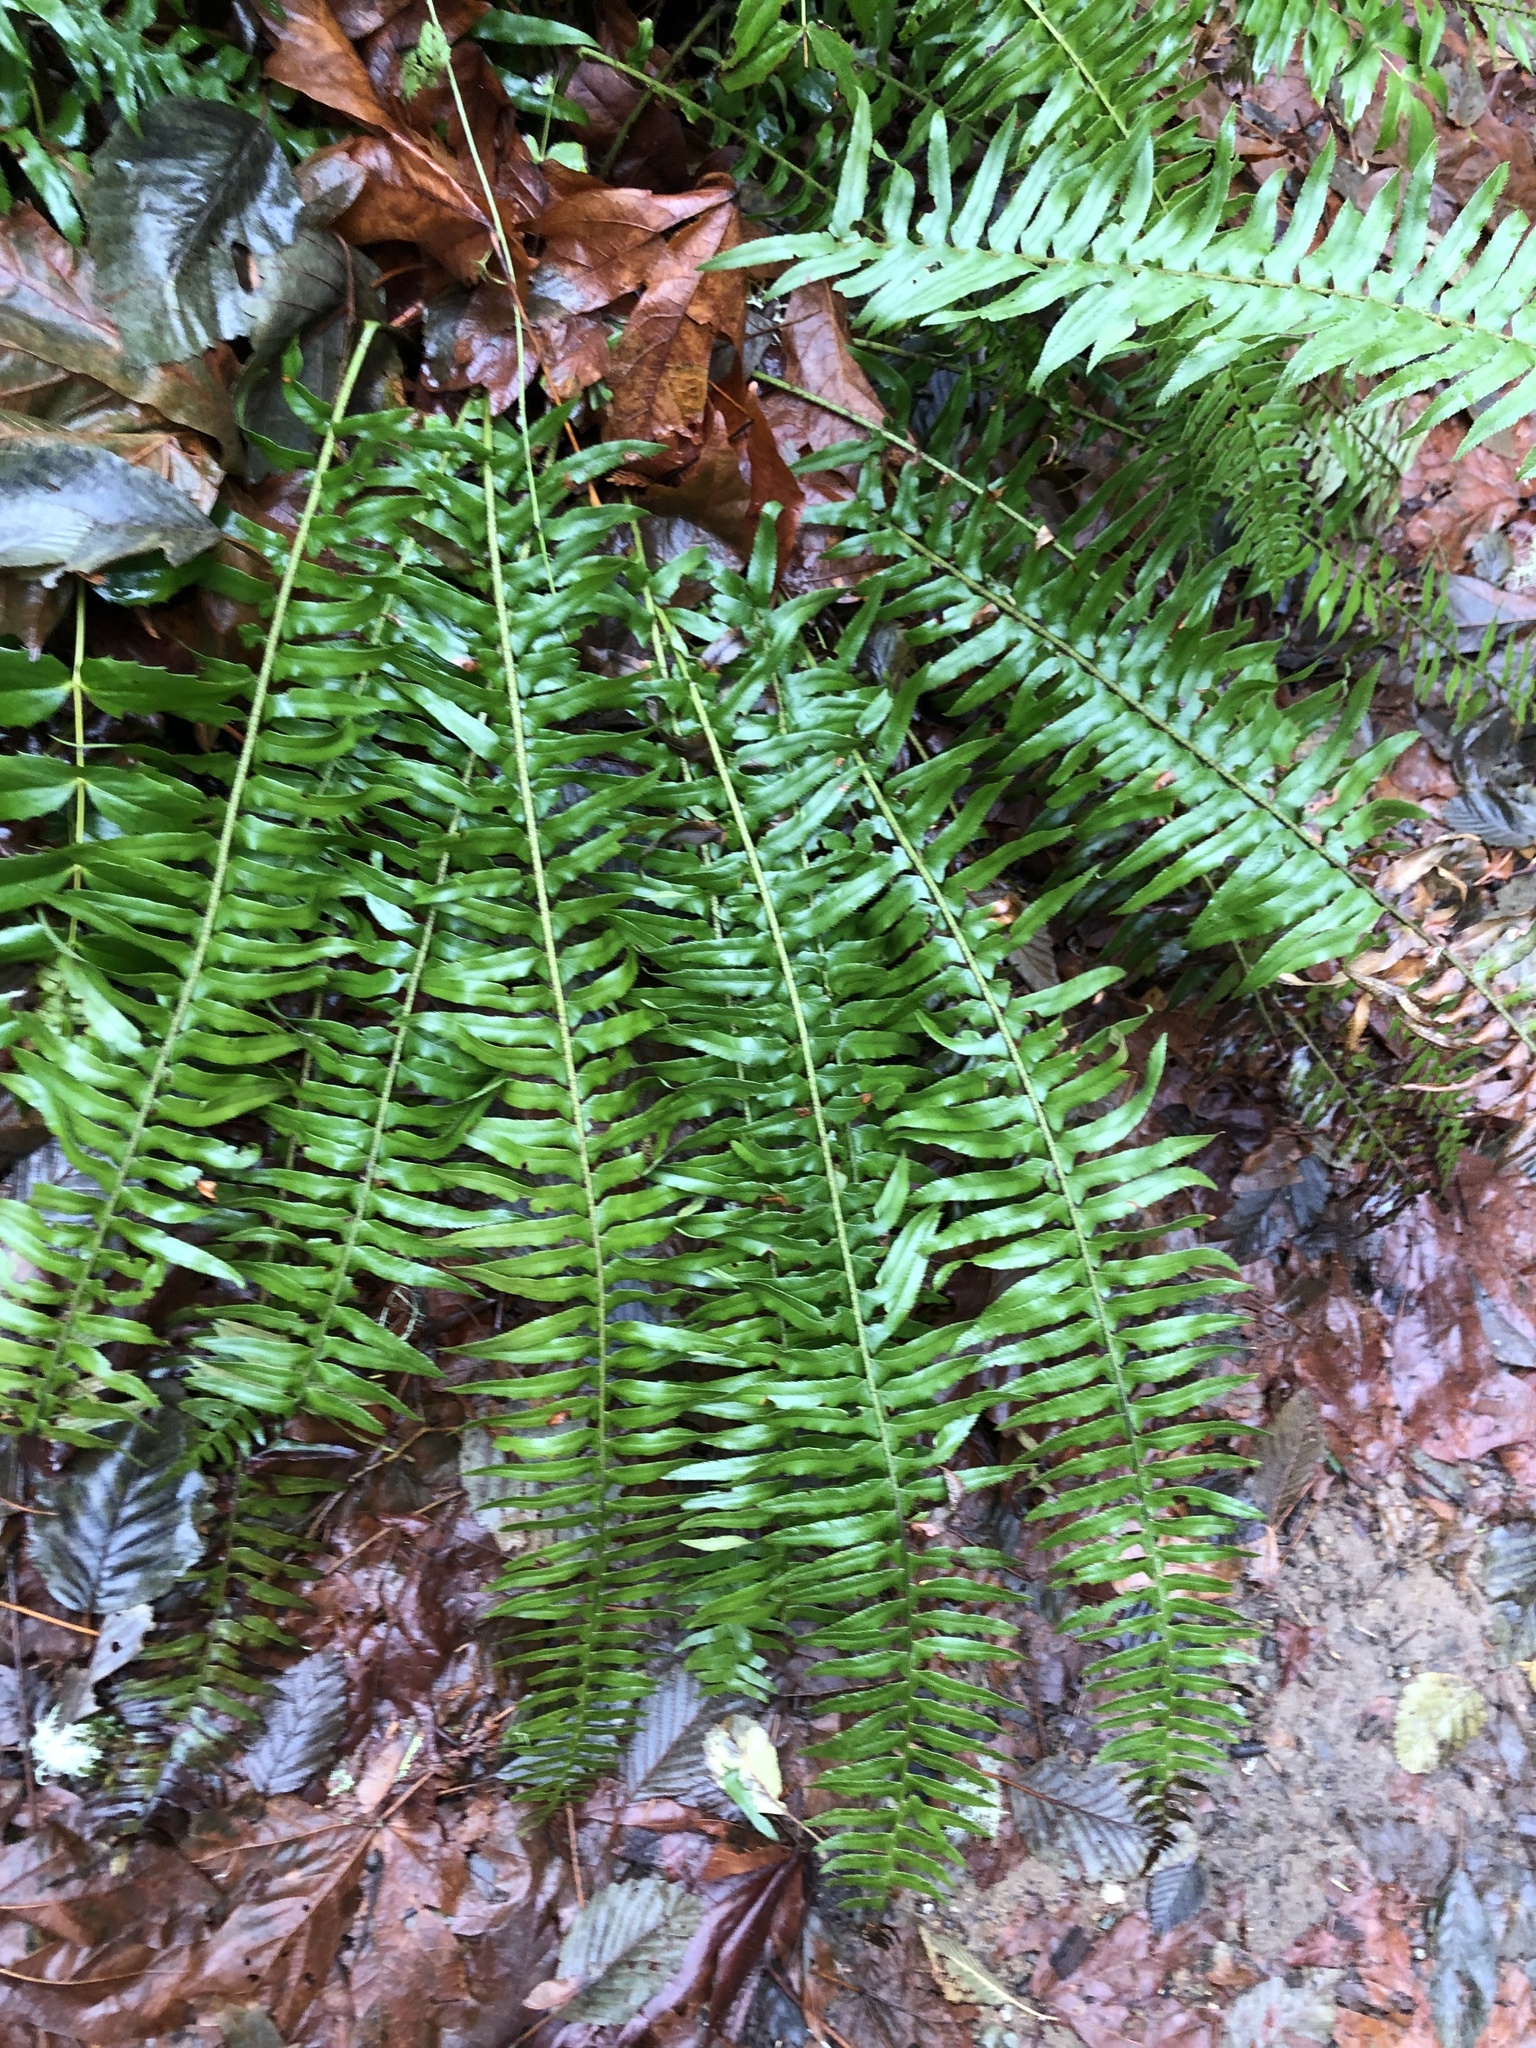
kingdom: Plantae
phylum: Tracheophyta
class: Polypodiopsida
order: Polypodiales
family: Dryopteridaceae
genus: Polystichum
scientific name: Polystichum munitum
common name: Western sword-fern
